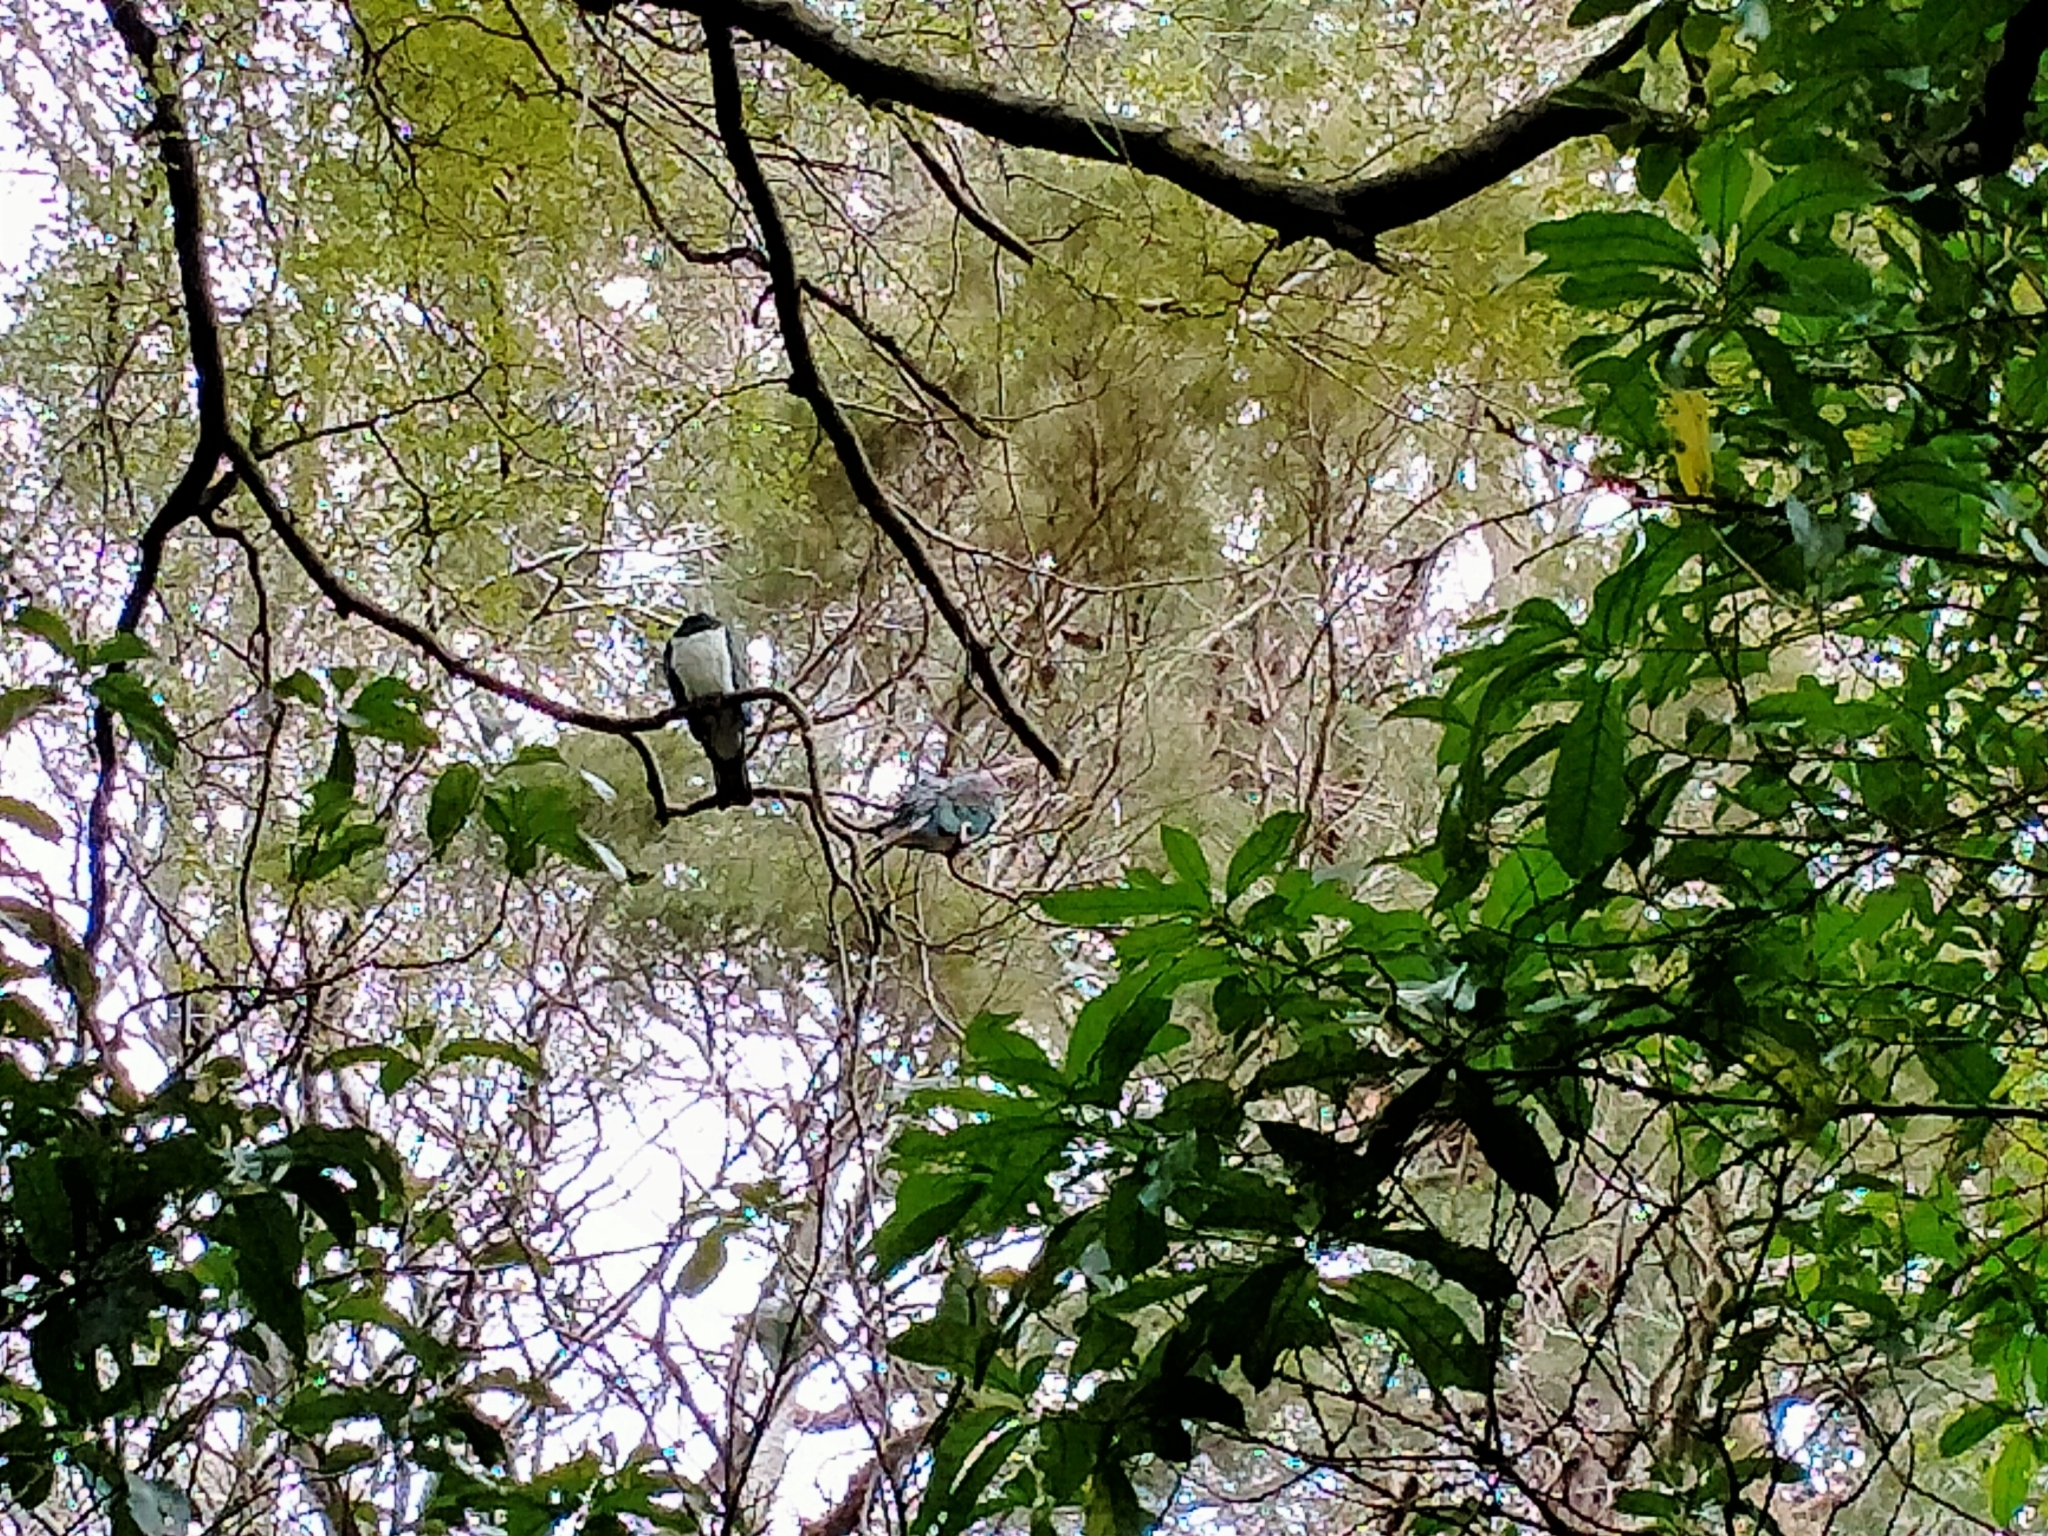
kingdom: Animalia
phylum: Chordata
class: Aves
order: Columbiformes
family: Columbidae
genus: Hemiphaga
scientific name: Hemiphaga novaeseelandiae
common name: New zealand pigeon
